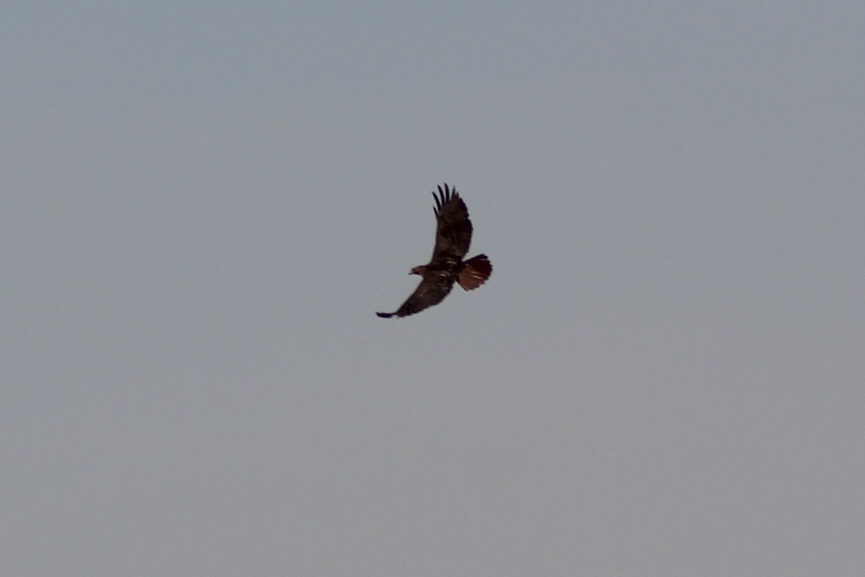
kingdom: Animalia
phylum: Chordata
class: Aves
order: Accipitriformes
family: Accipitridae
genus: Buteo
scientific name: Buteo jamaicensis
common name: Red-tailed hawk
